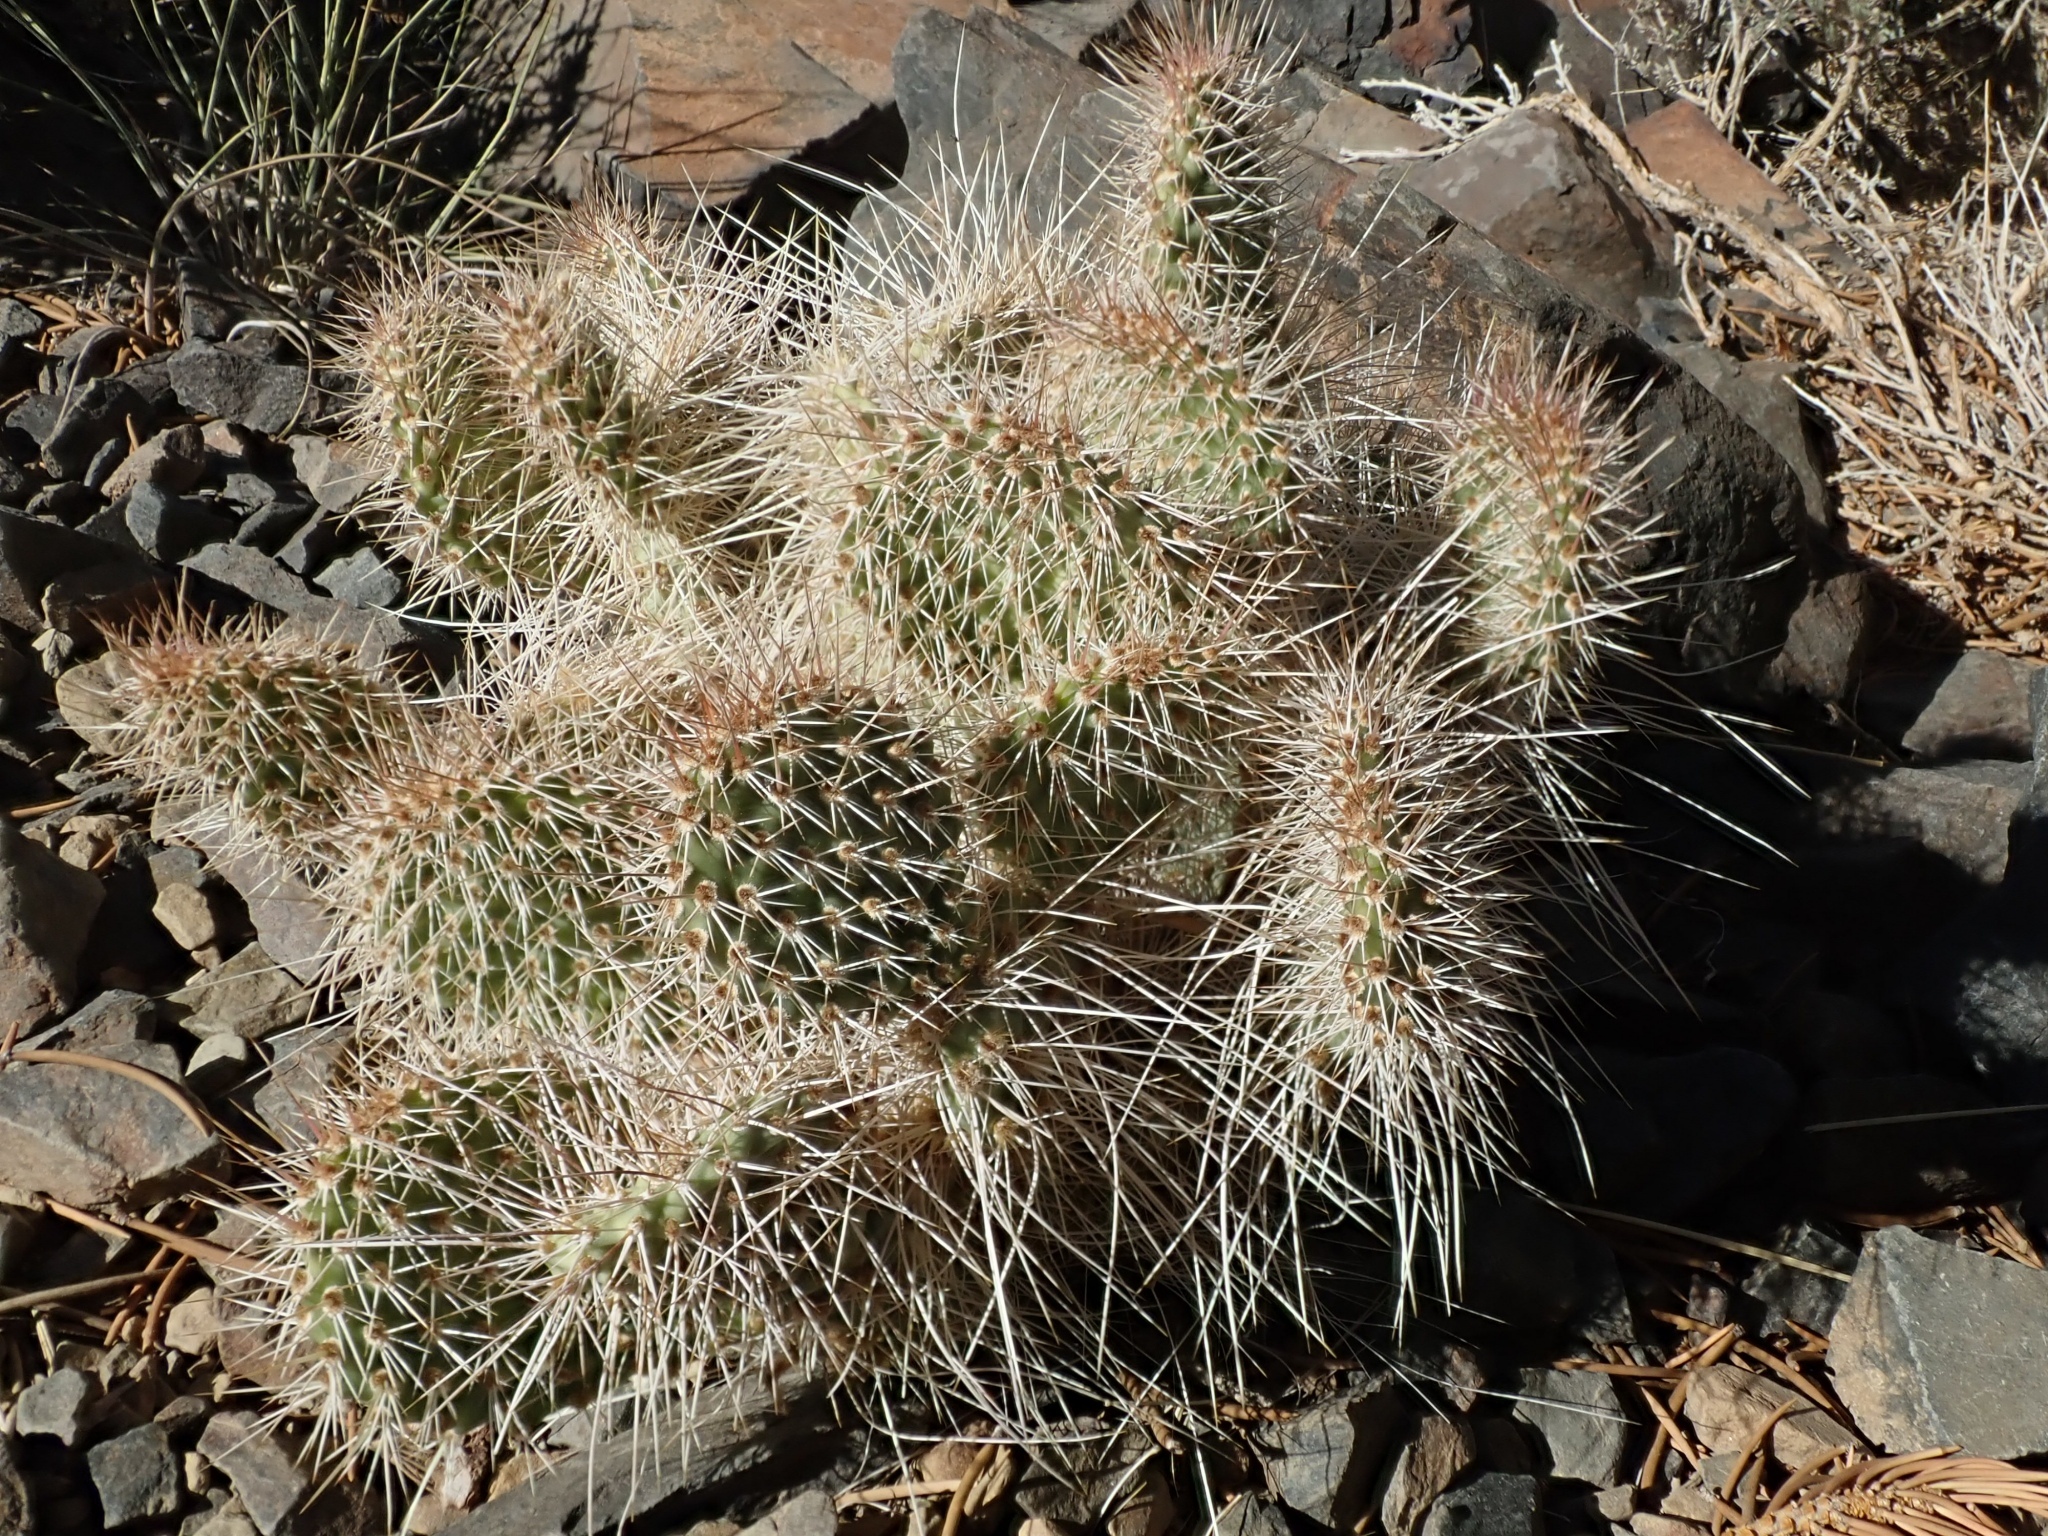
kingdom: Plantae
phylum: Tracheophyta
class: Magnoliopsida
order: Caryophyllales
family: Cactaceae
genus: Opuntia
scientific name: Opuntia polyacantha
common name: Plains prickly-pear
